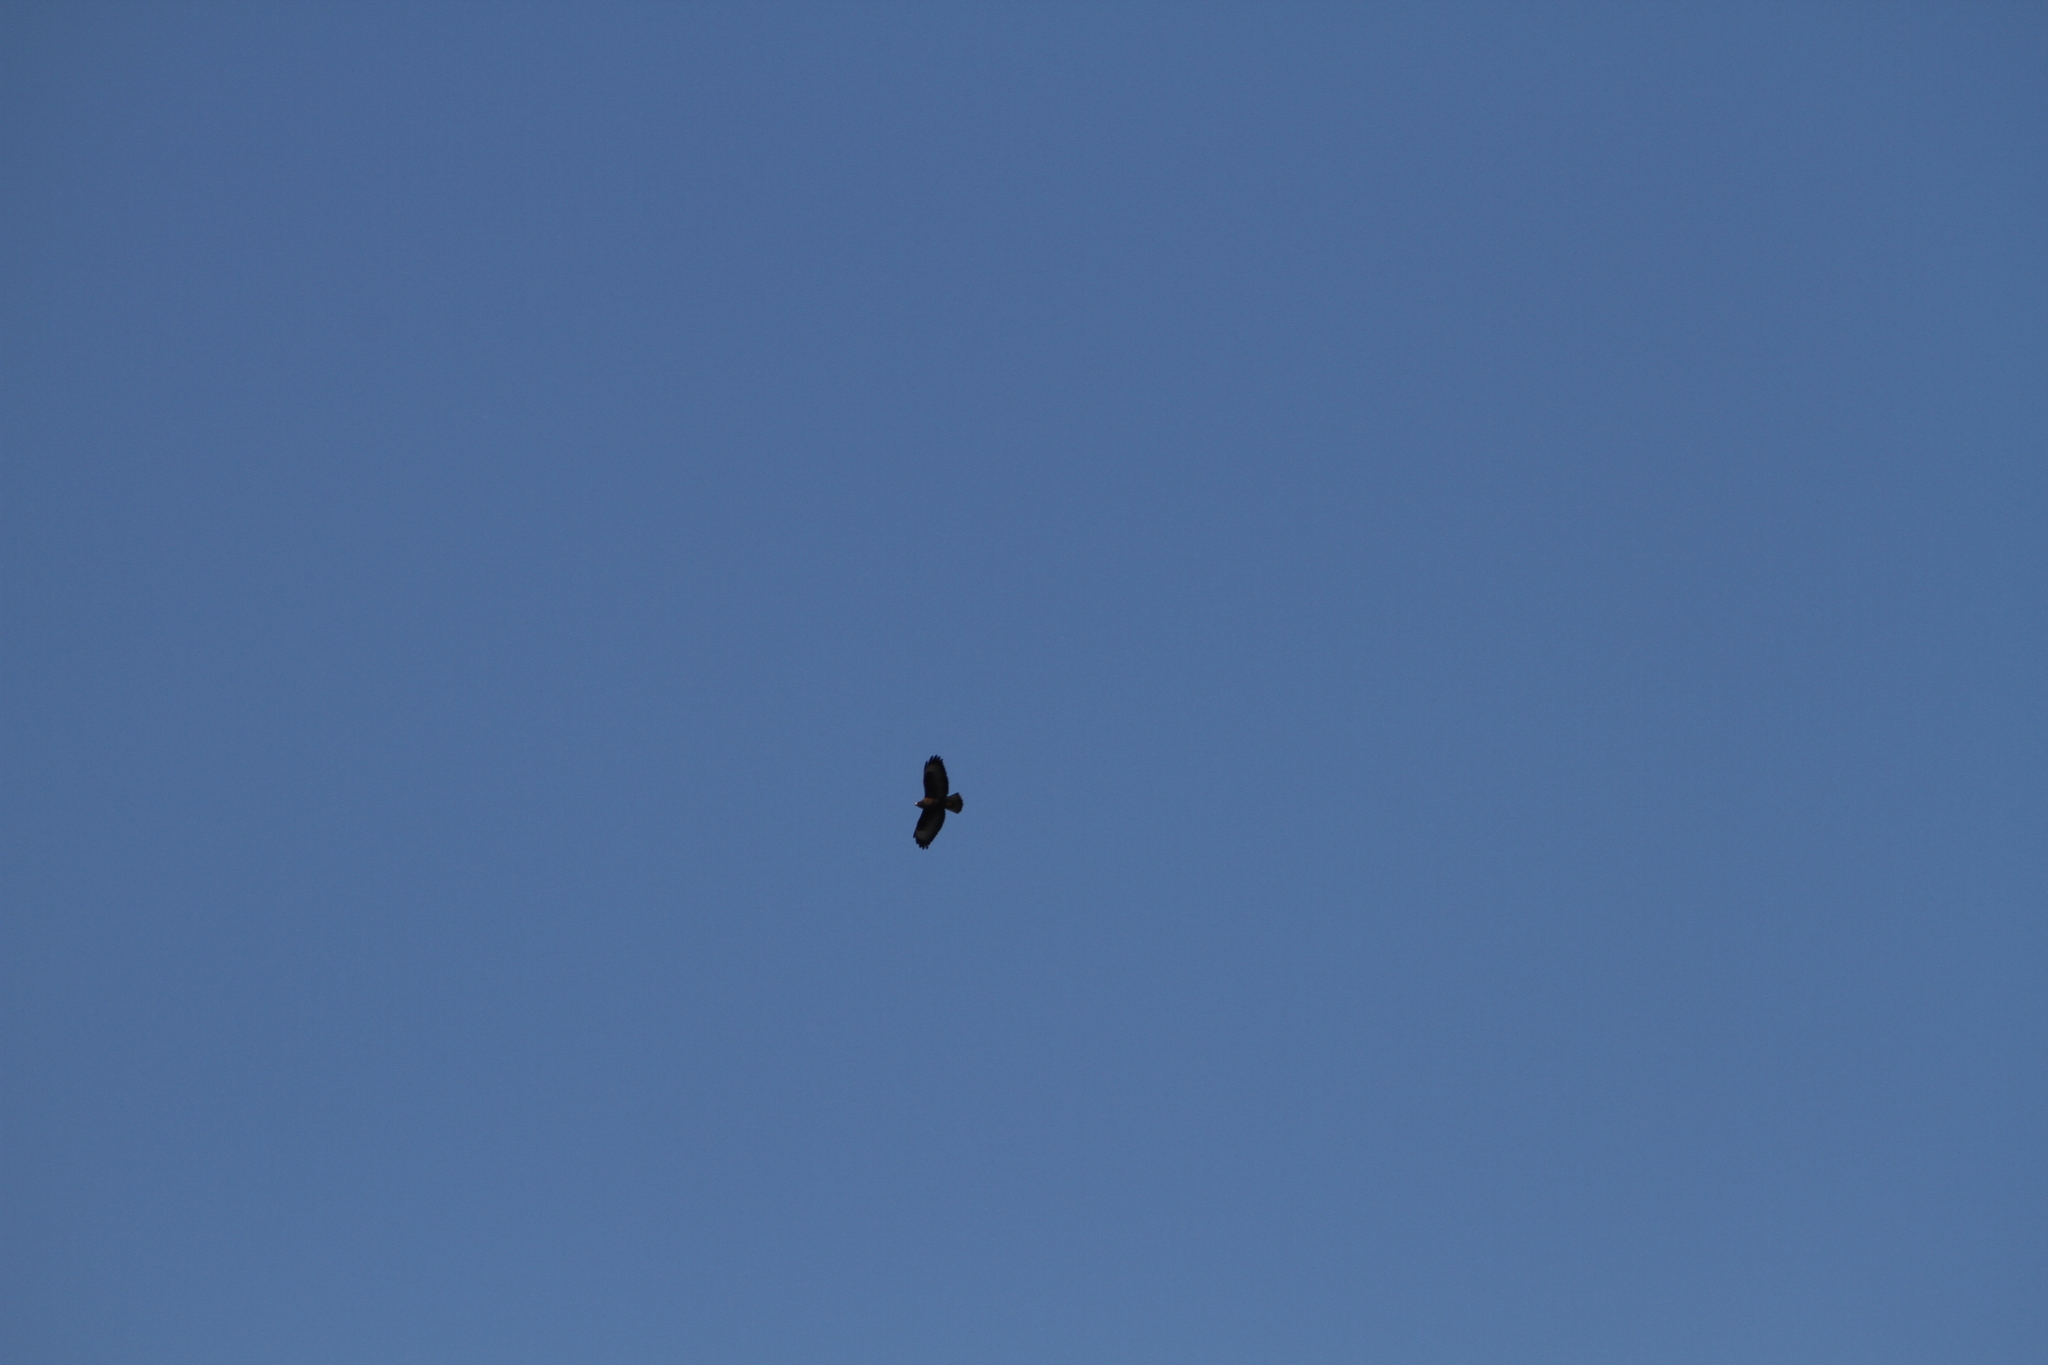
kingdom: Animalia
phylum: Chordata
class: Aves
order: Accipitriformes
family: Accipitridae
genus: Buteo
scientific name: Buteo buteo
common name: Common buzzard
